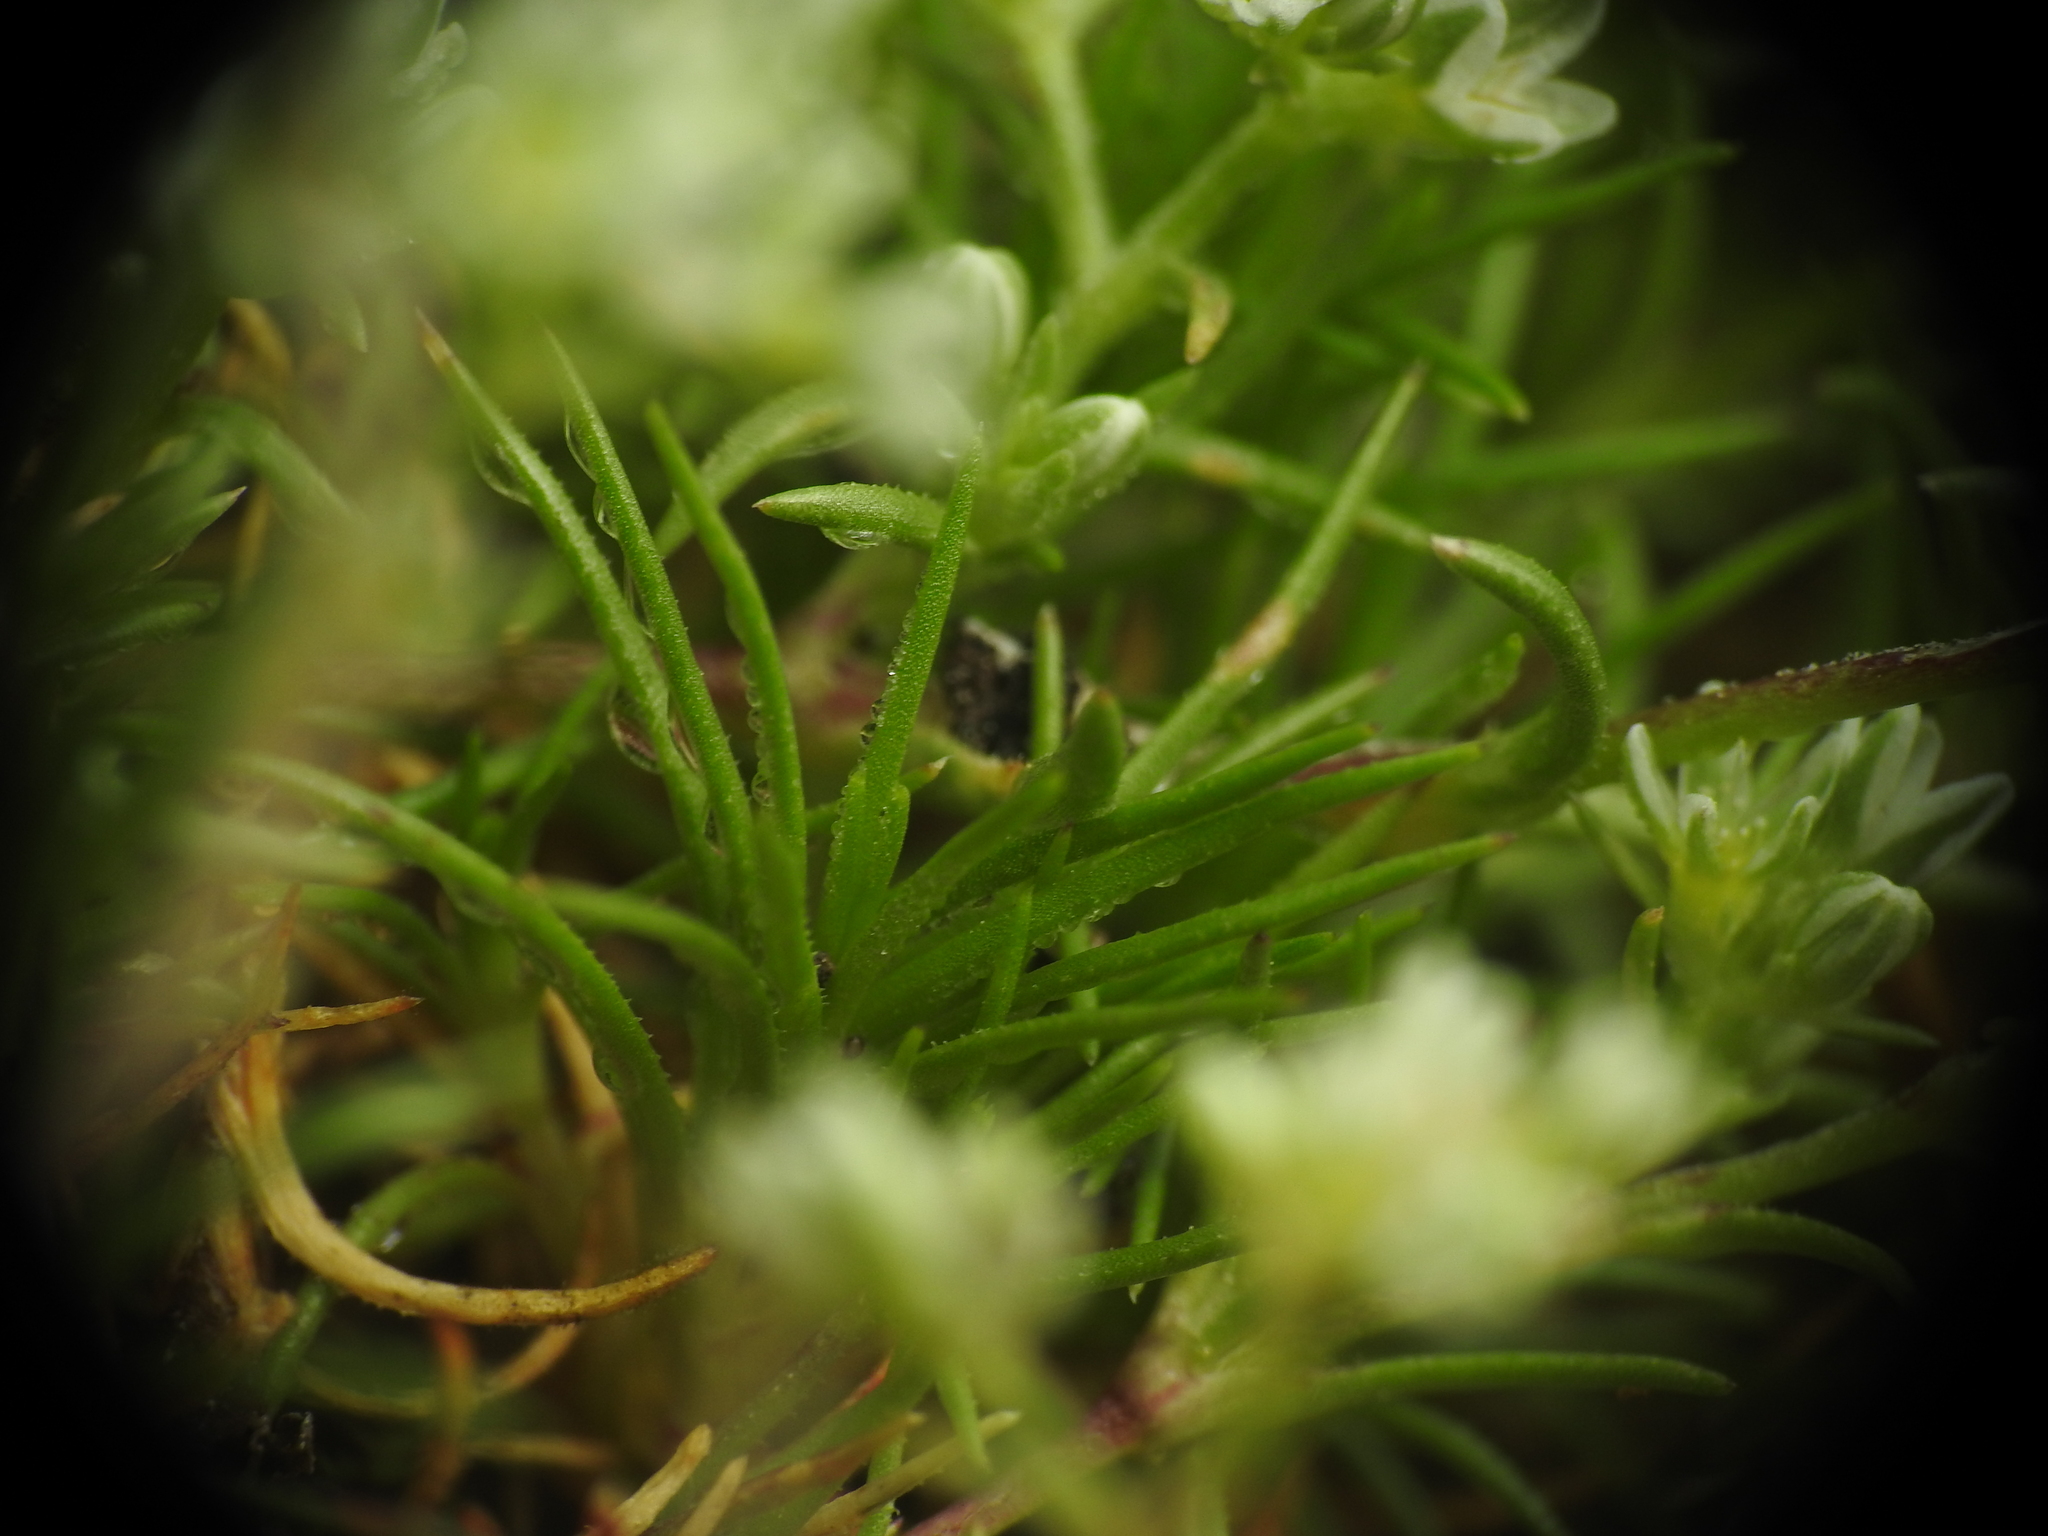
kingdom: Plantae
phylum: Tracheophyta
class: Magnoliopsida
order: Caryophyllales
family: Caryophyllaceae
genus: Scleranthus
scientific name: Scleranthus perennis
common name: Perennial knawel
